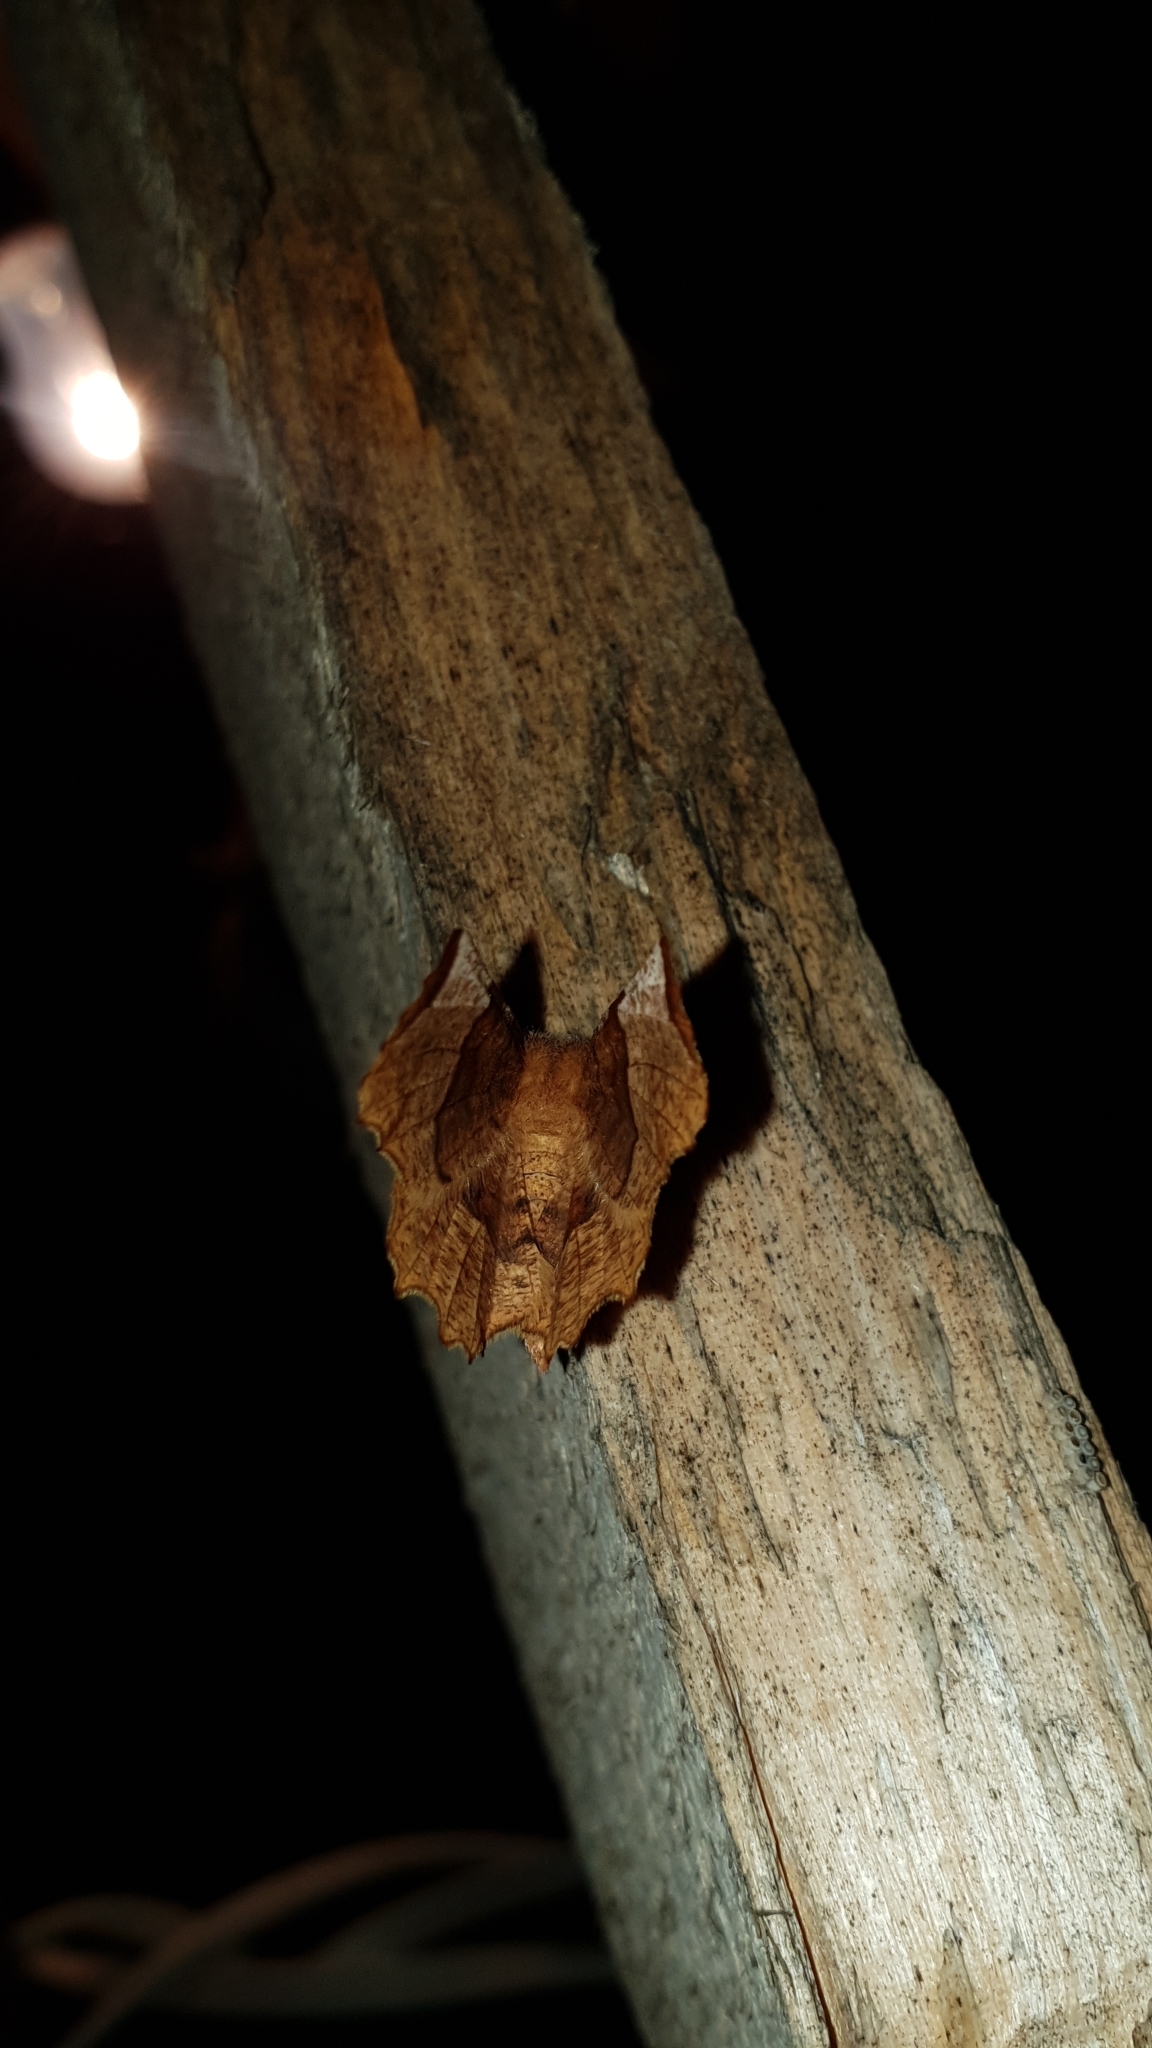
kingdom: Animalia
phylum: Arthropoda
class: Insecta
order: Lepidoptera
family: Geometridae
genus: Selenia
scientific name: Selenia lunularia
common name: Lunar thorn
